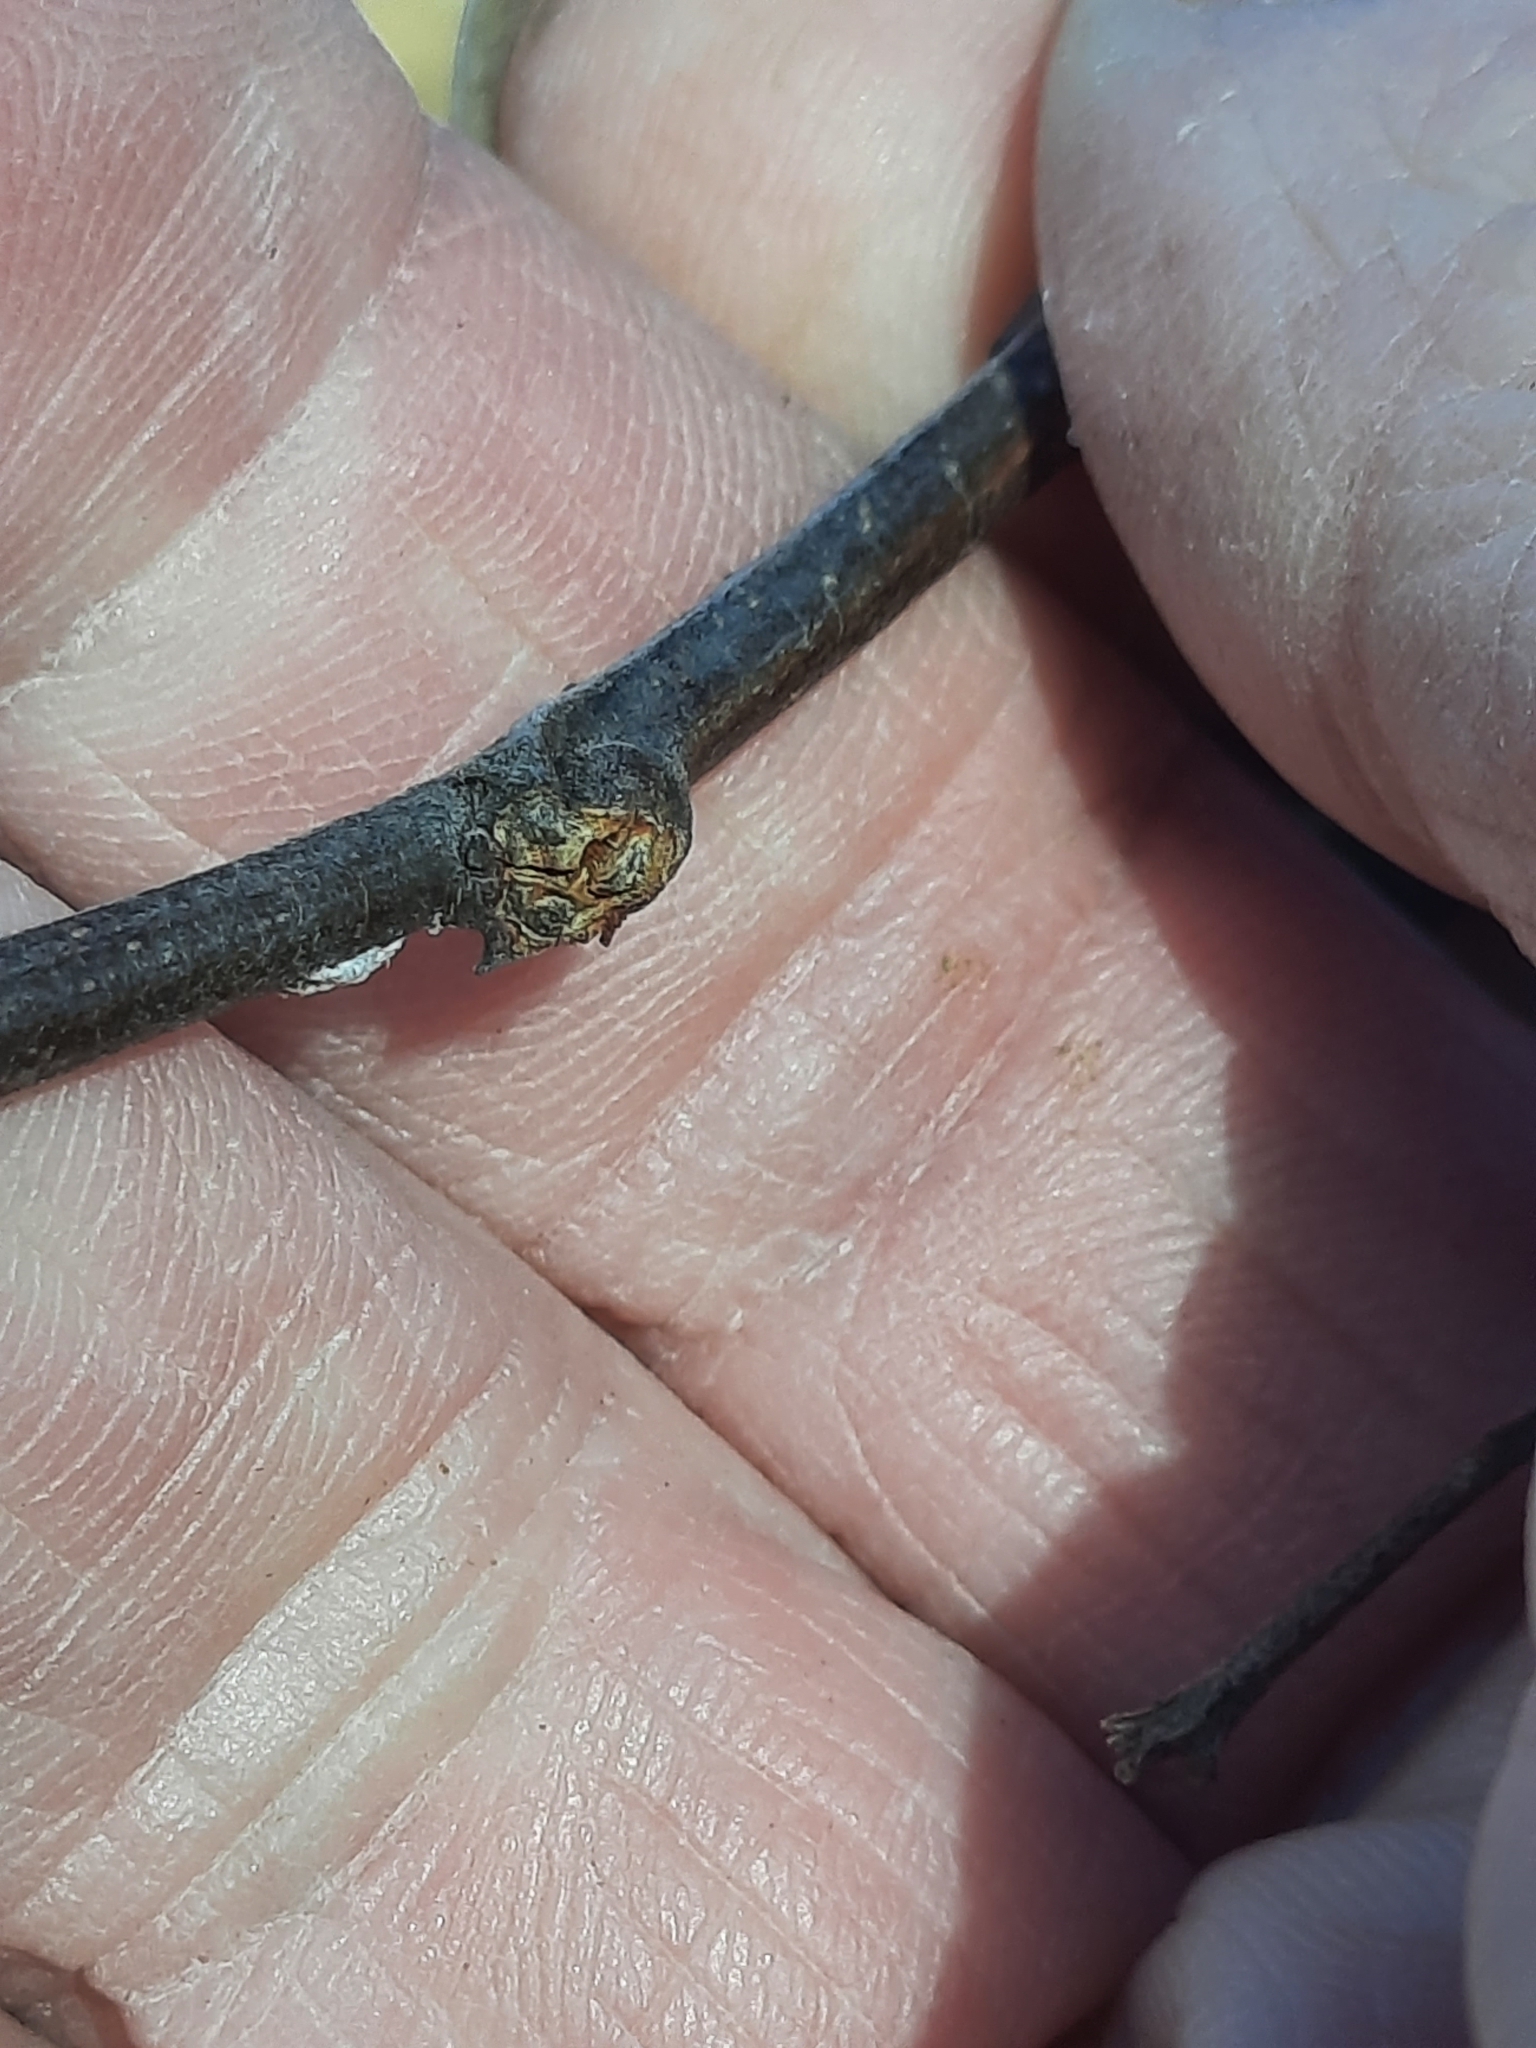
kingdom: Plantae
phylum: Tracheophyta
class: Magnoliopsida
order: Fabales
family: Fabaceae
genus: Robinia
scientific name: Robinia pseudoacacia
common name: Black locust
